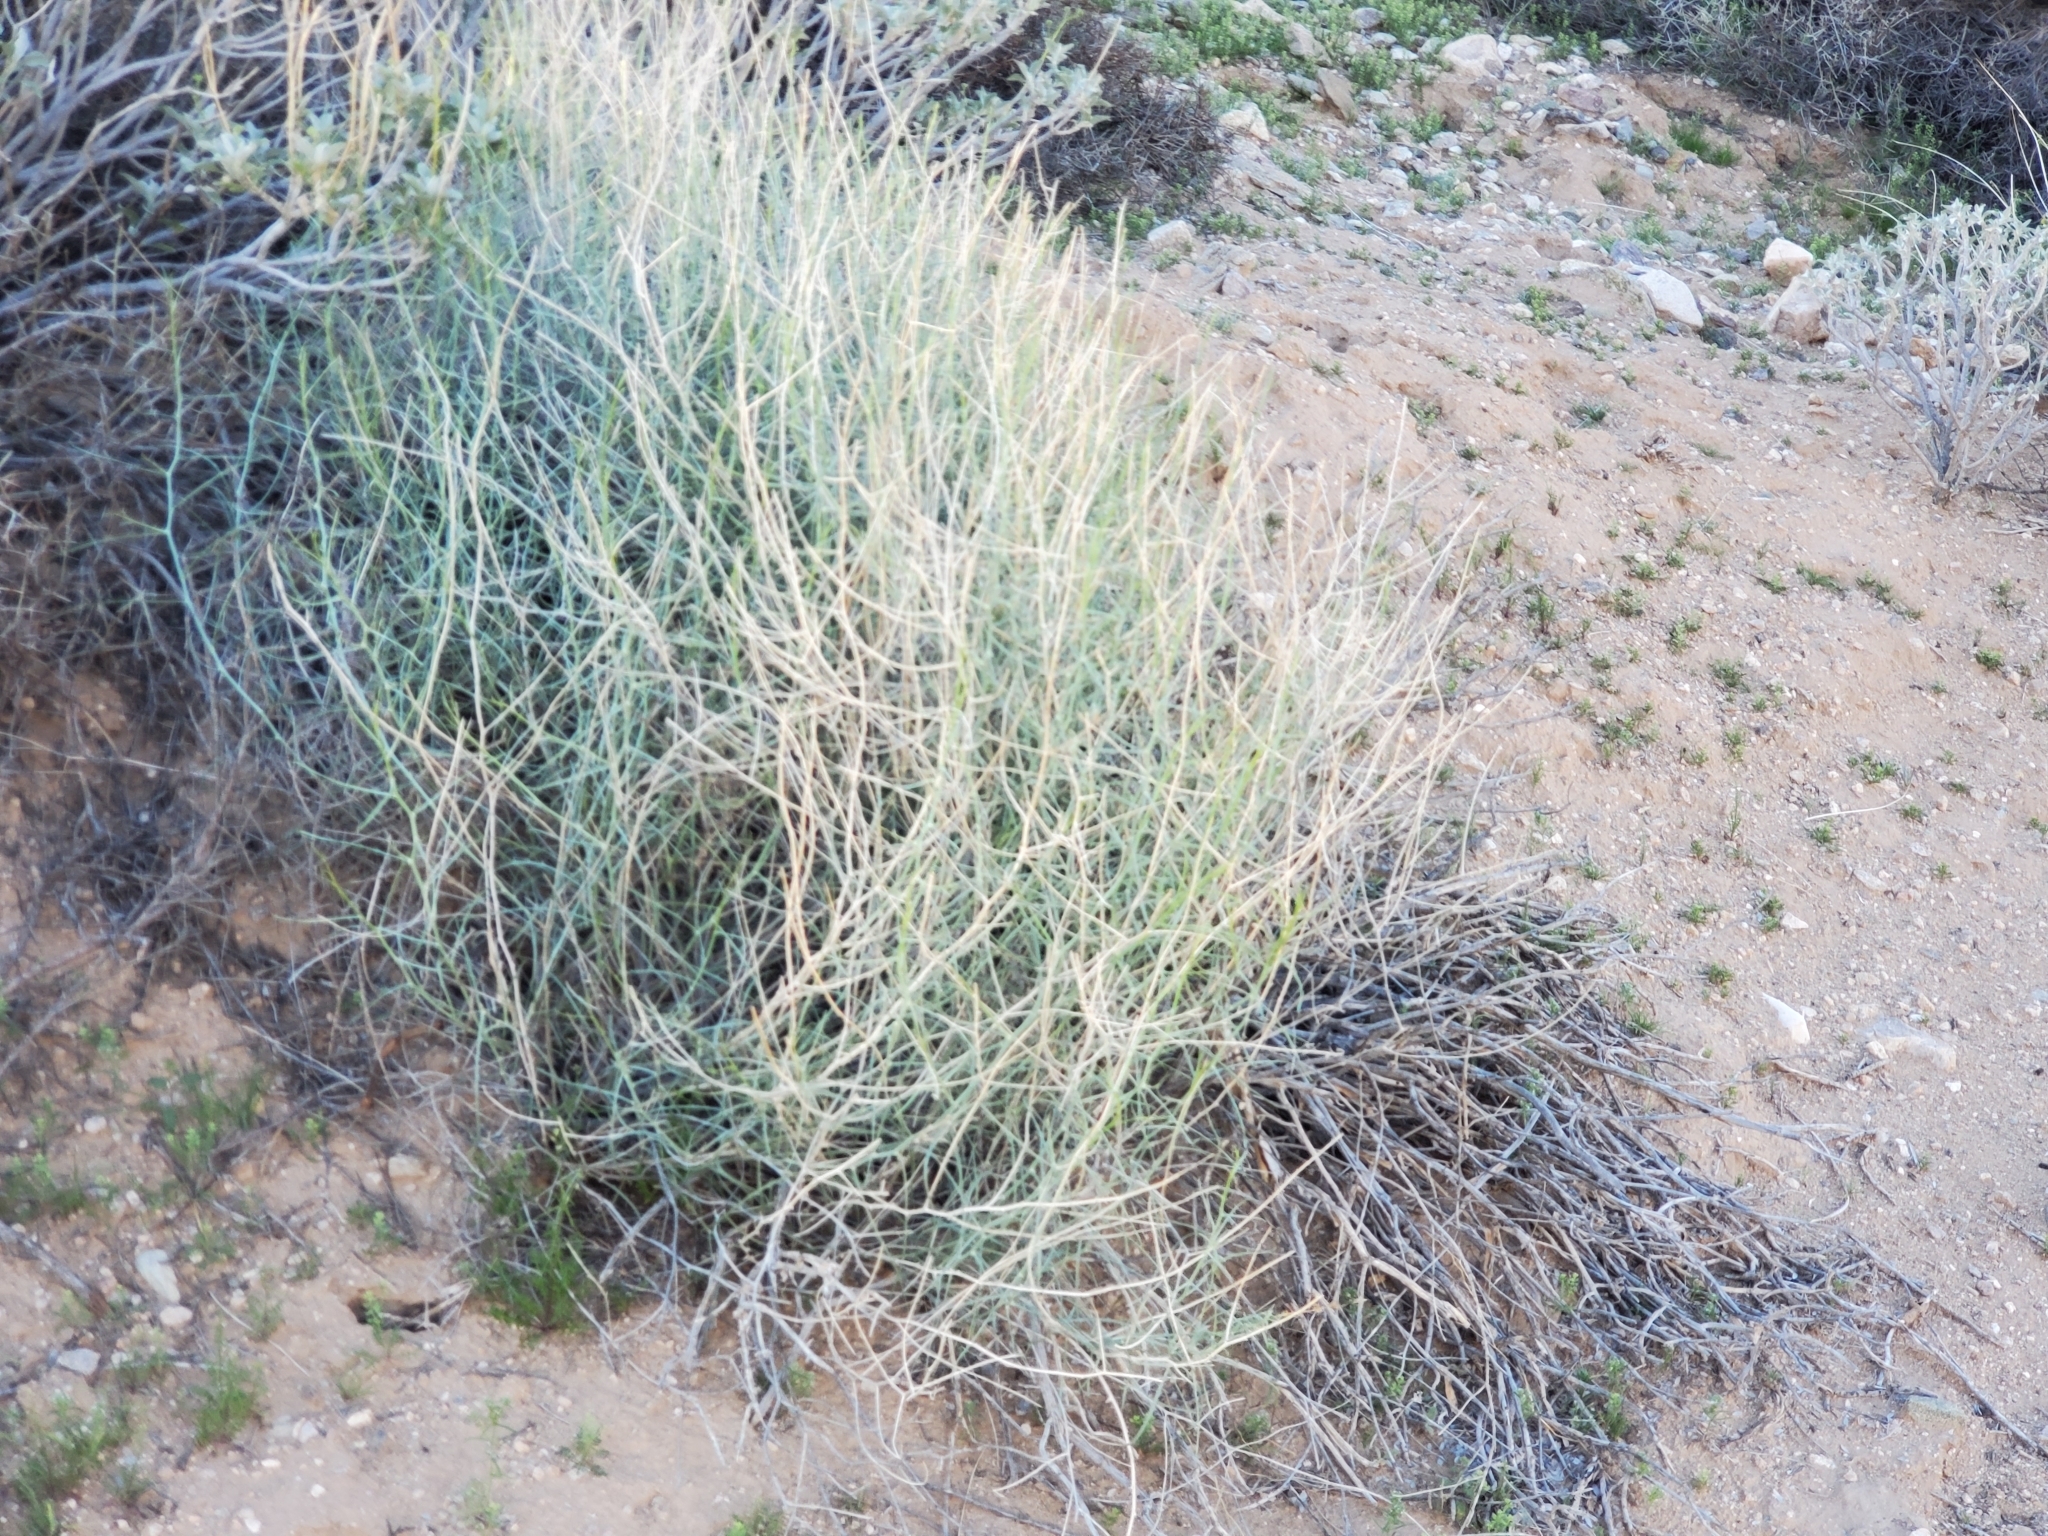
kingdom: Plantae
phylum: Tracheophyta
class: Magnoliopsida
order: Asterales
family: Asteraceae
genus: Stephanomeria
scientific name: Stephanomeria pauciflora
